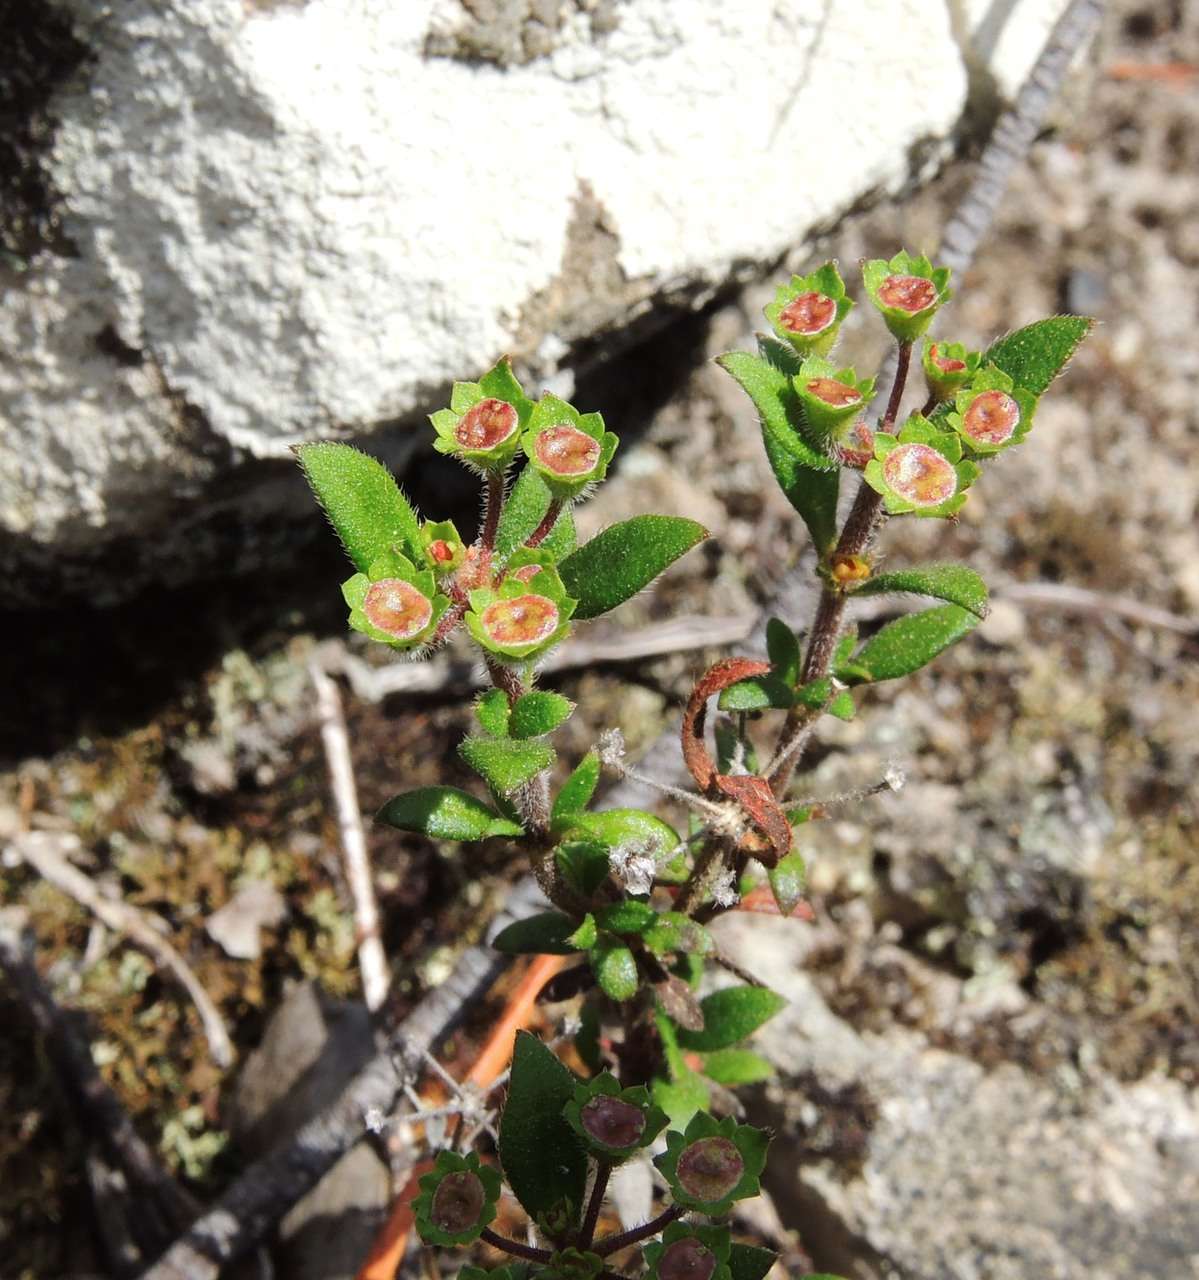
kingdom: Plantae
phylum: Tracheophyta
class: Magnoliopsida
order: Gentianales
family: Rubiaceae
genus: Pomax
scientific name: Pomax umbellata
